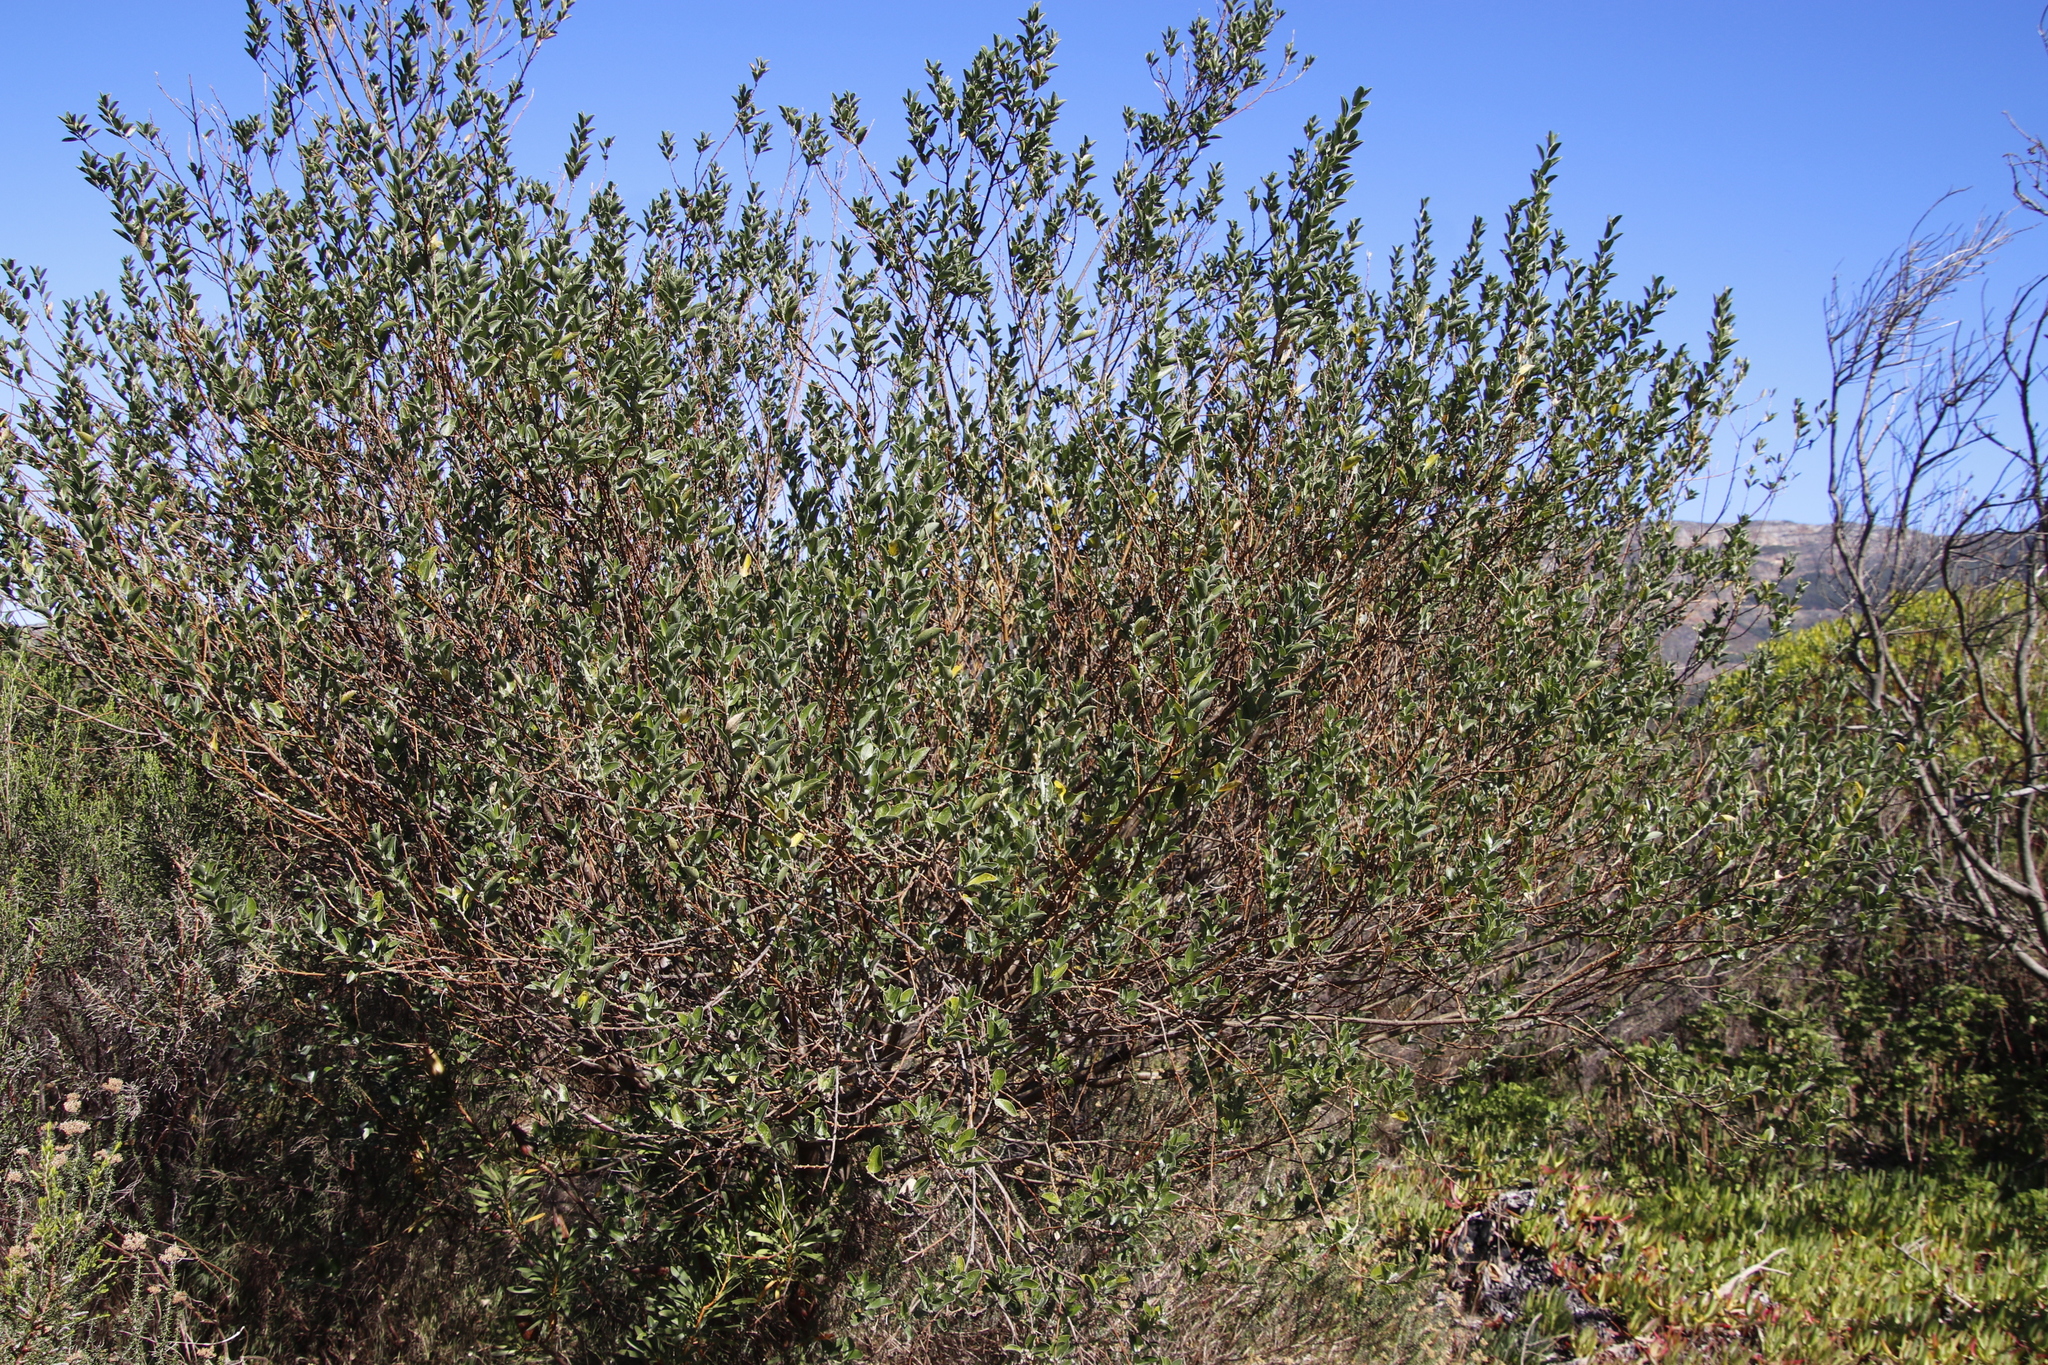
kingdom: Plantae
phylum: Tracheophyta
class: Magnoliopsida
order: Fabales
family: Fabaceae
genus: Podalyria
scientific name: Podalyria calyptrata
